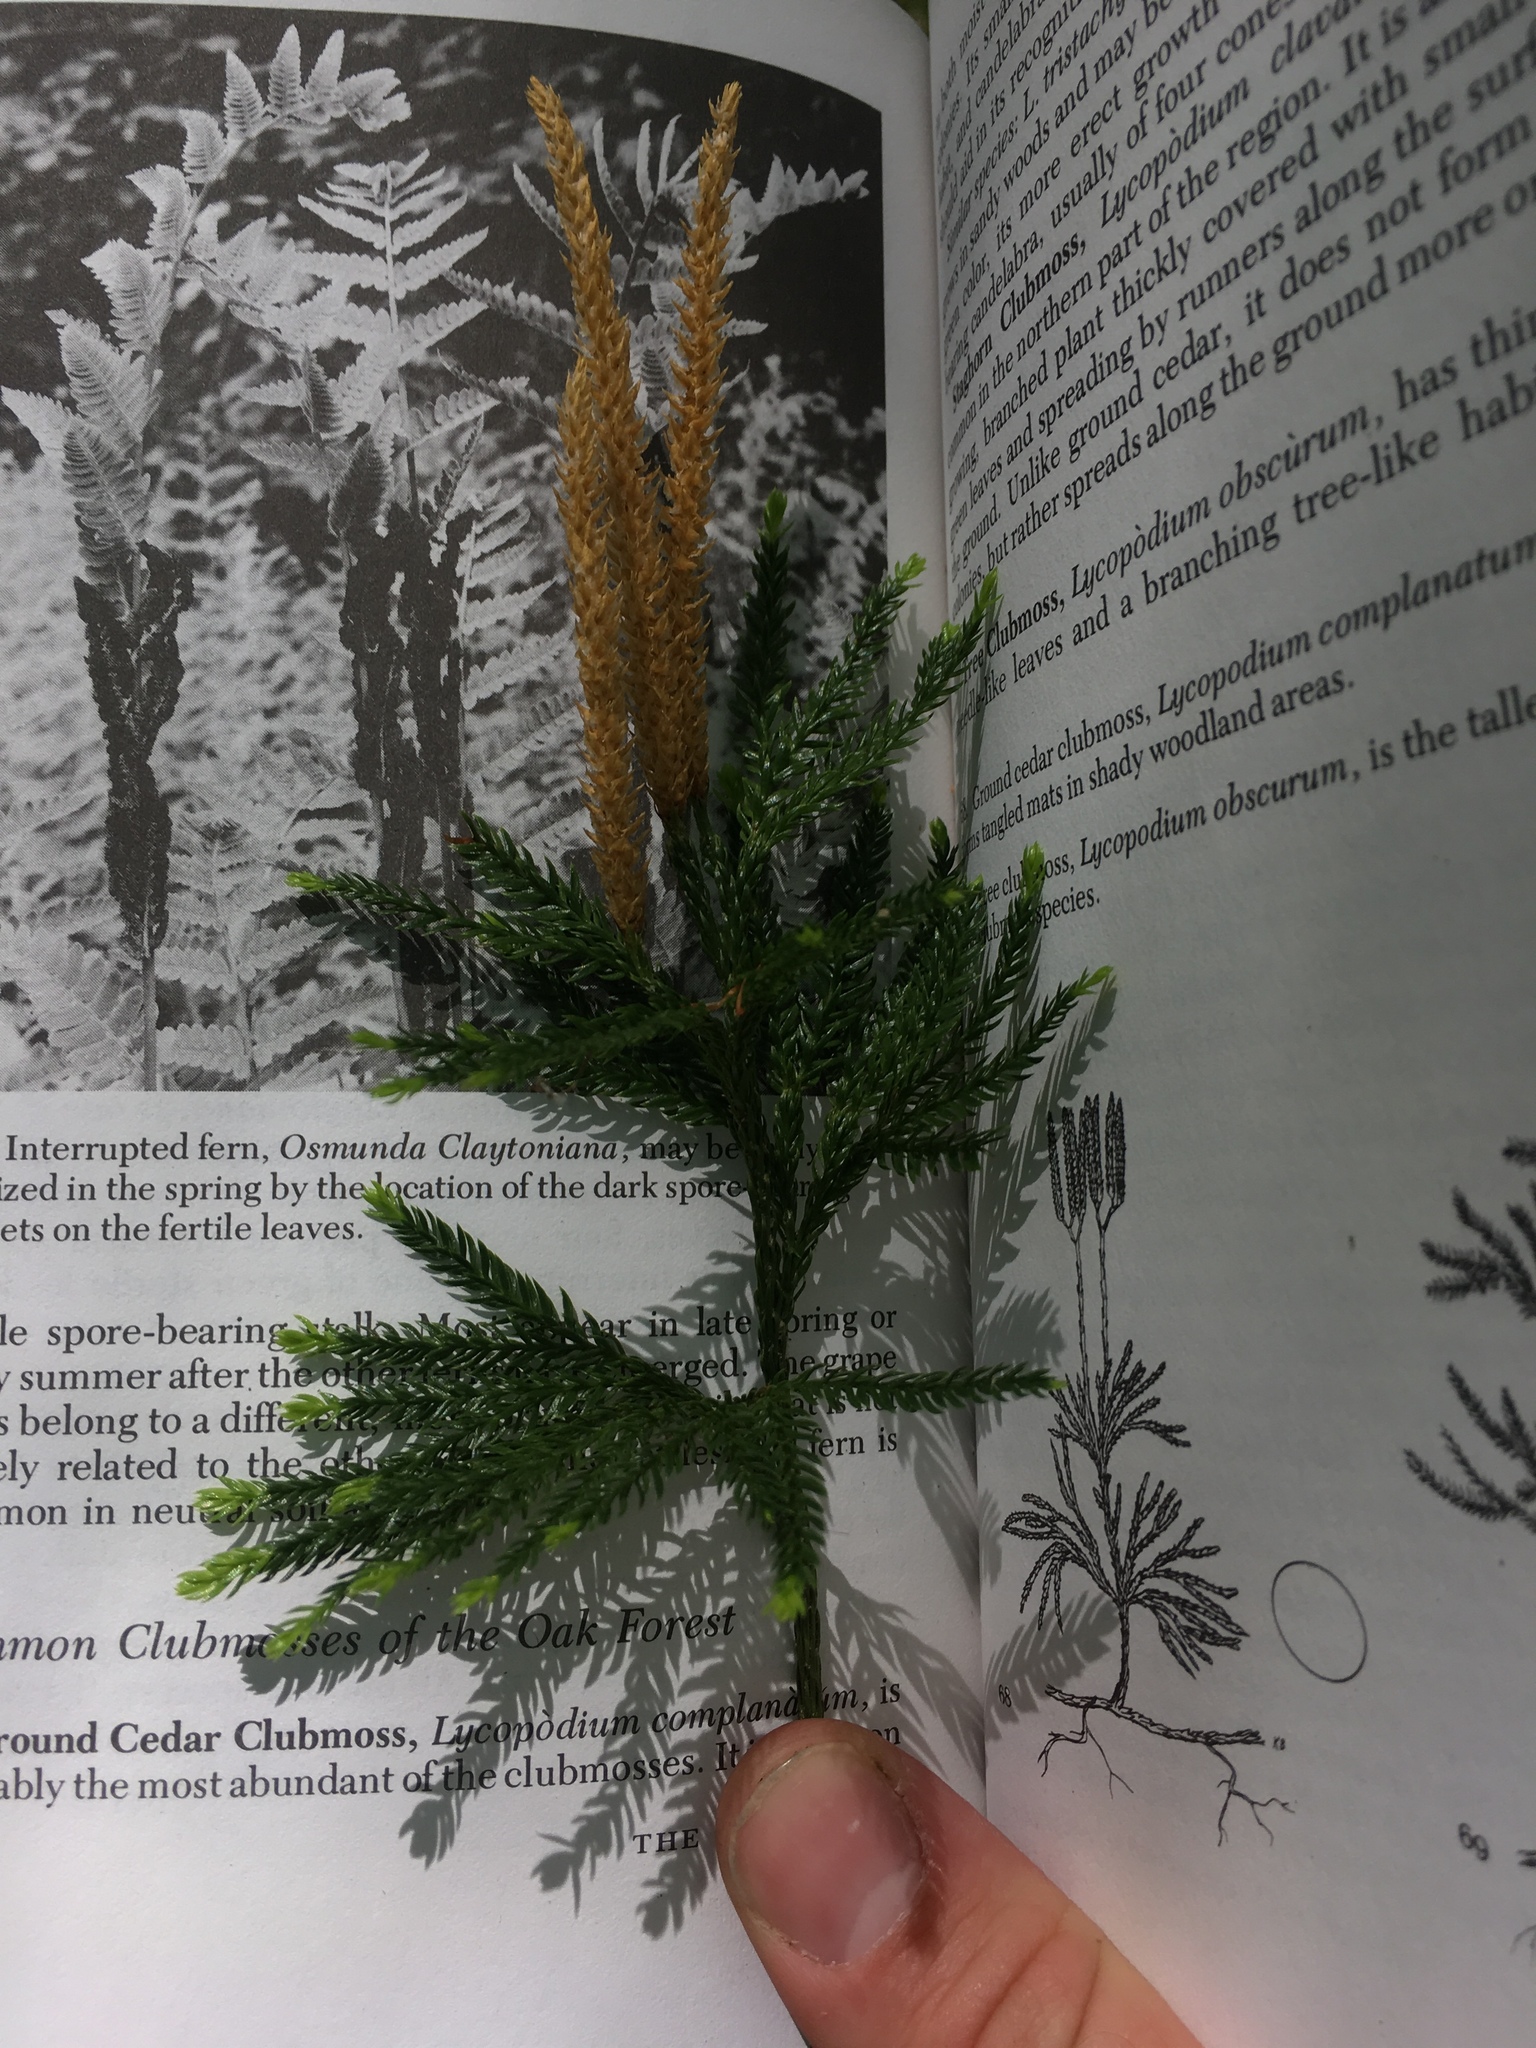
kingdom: Plantae
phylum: Tracheophyta
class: Lycopodiopsida
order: Lycopodiales
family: Lycopodiaceae
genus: Dendrolycopodium
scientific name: Dendrolycopodium obscurum
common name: Common ground-pine
